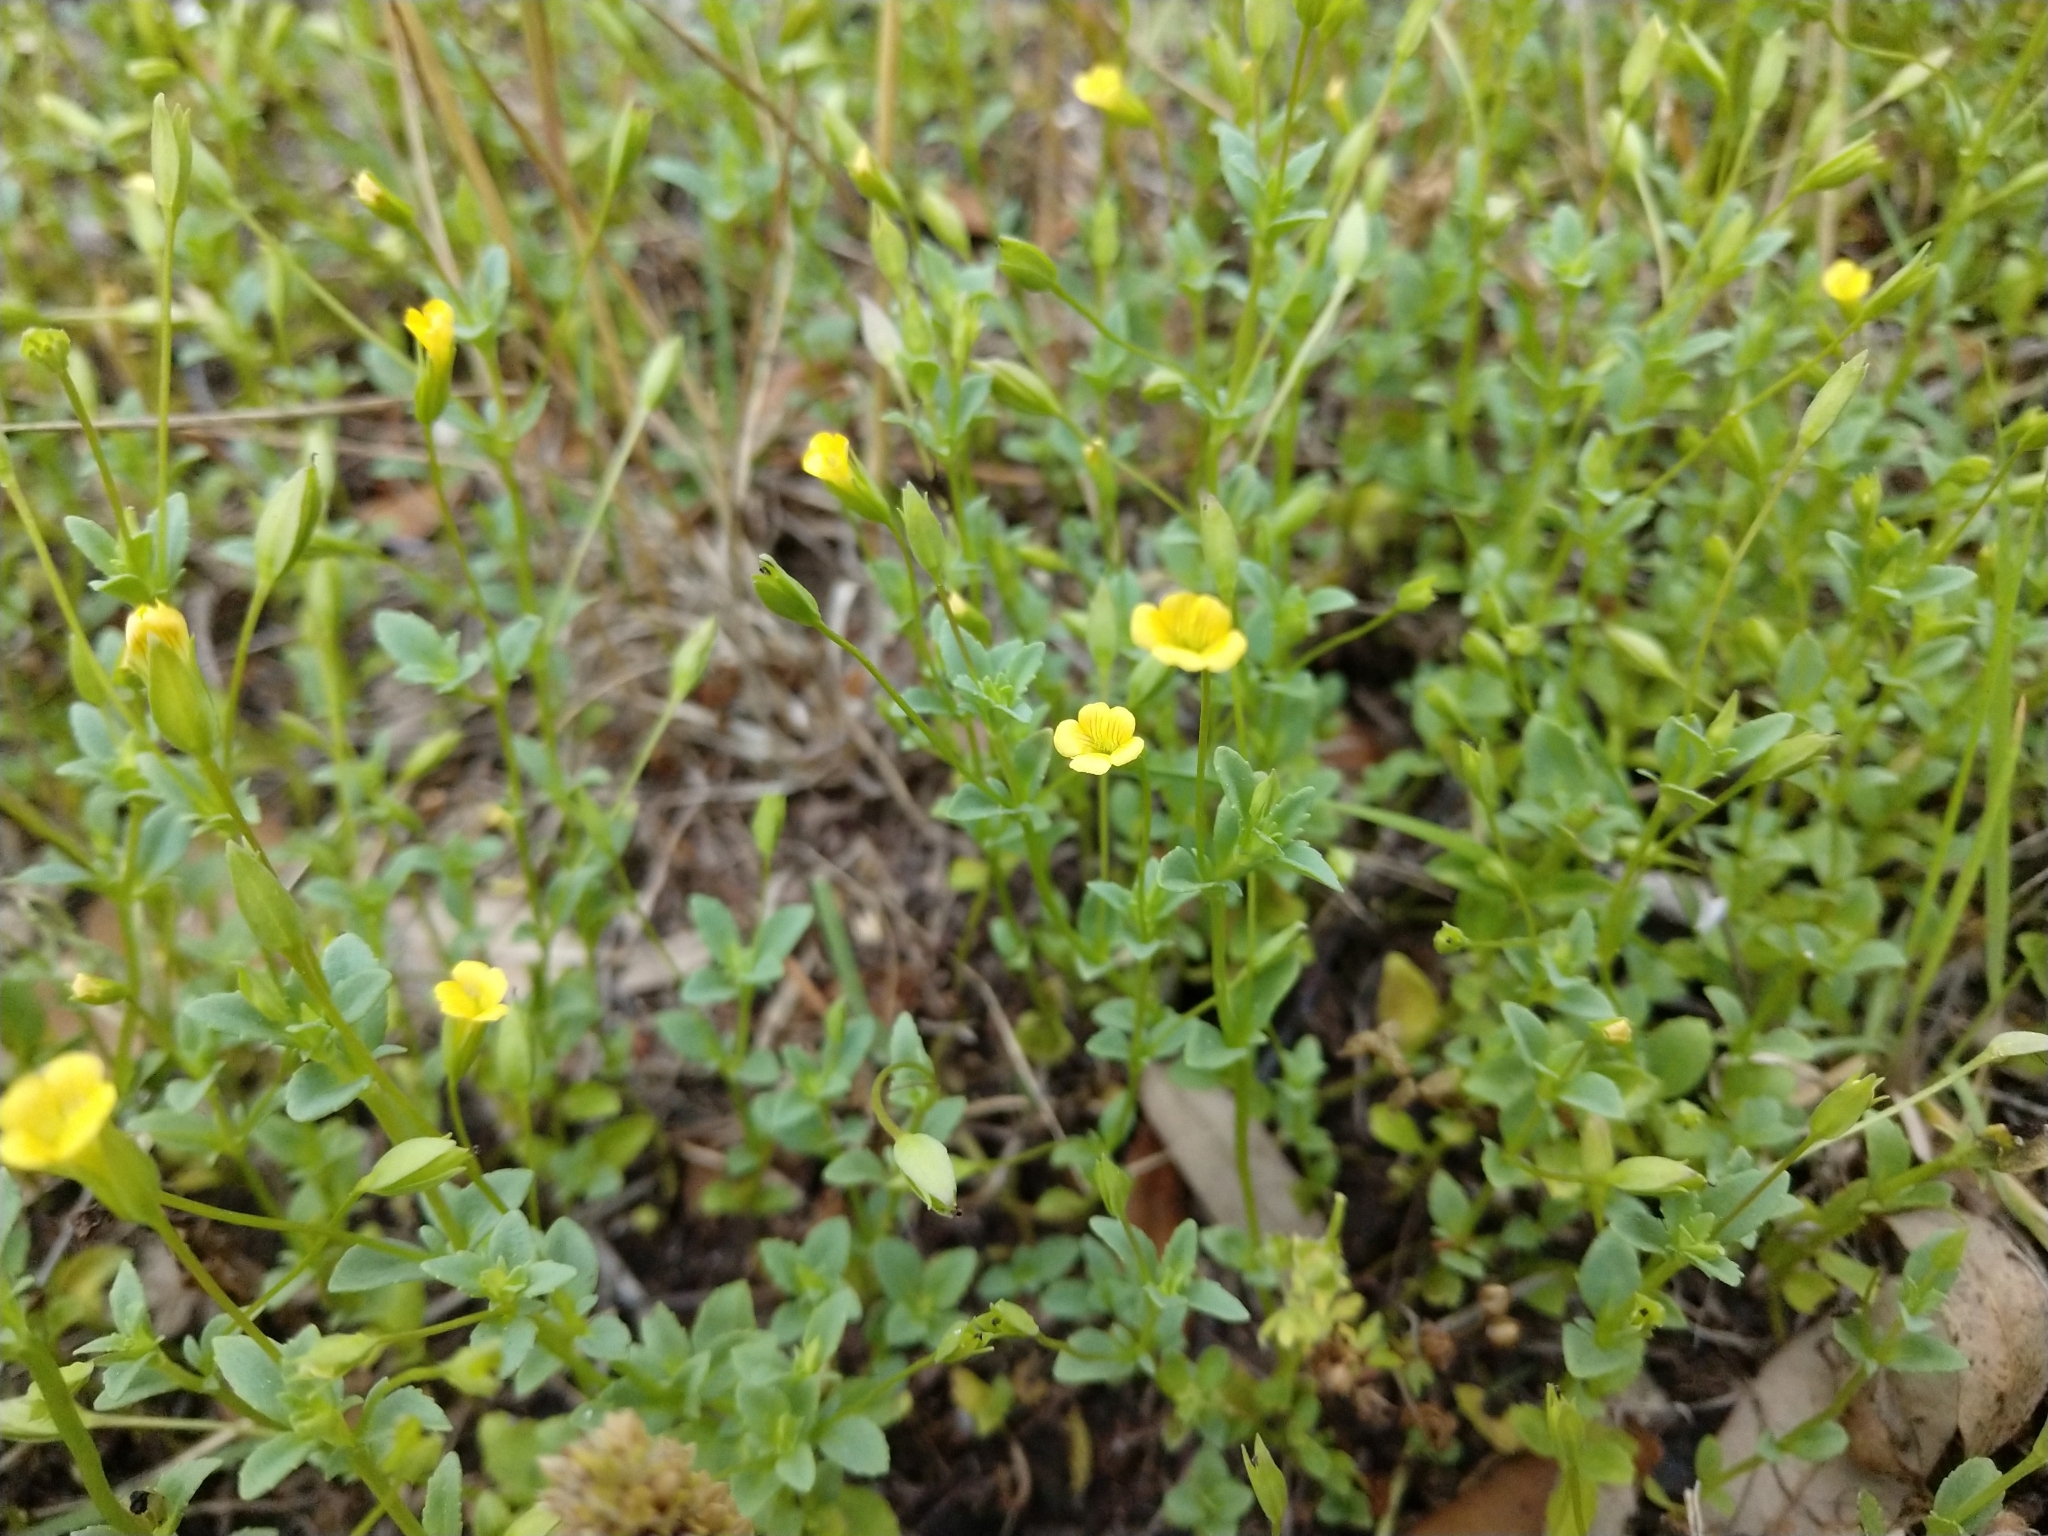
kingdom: Plantae
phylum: Tracheophyta
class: Magnoliopsida
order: Lamiales
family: Plantaginaceae
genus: Mecardonia
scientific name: Mecardonia procumbens
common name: Baby jump-up
